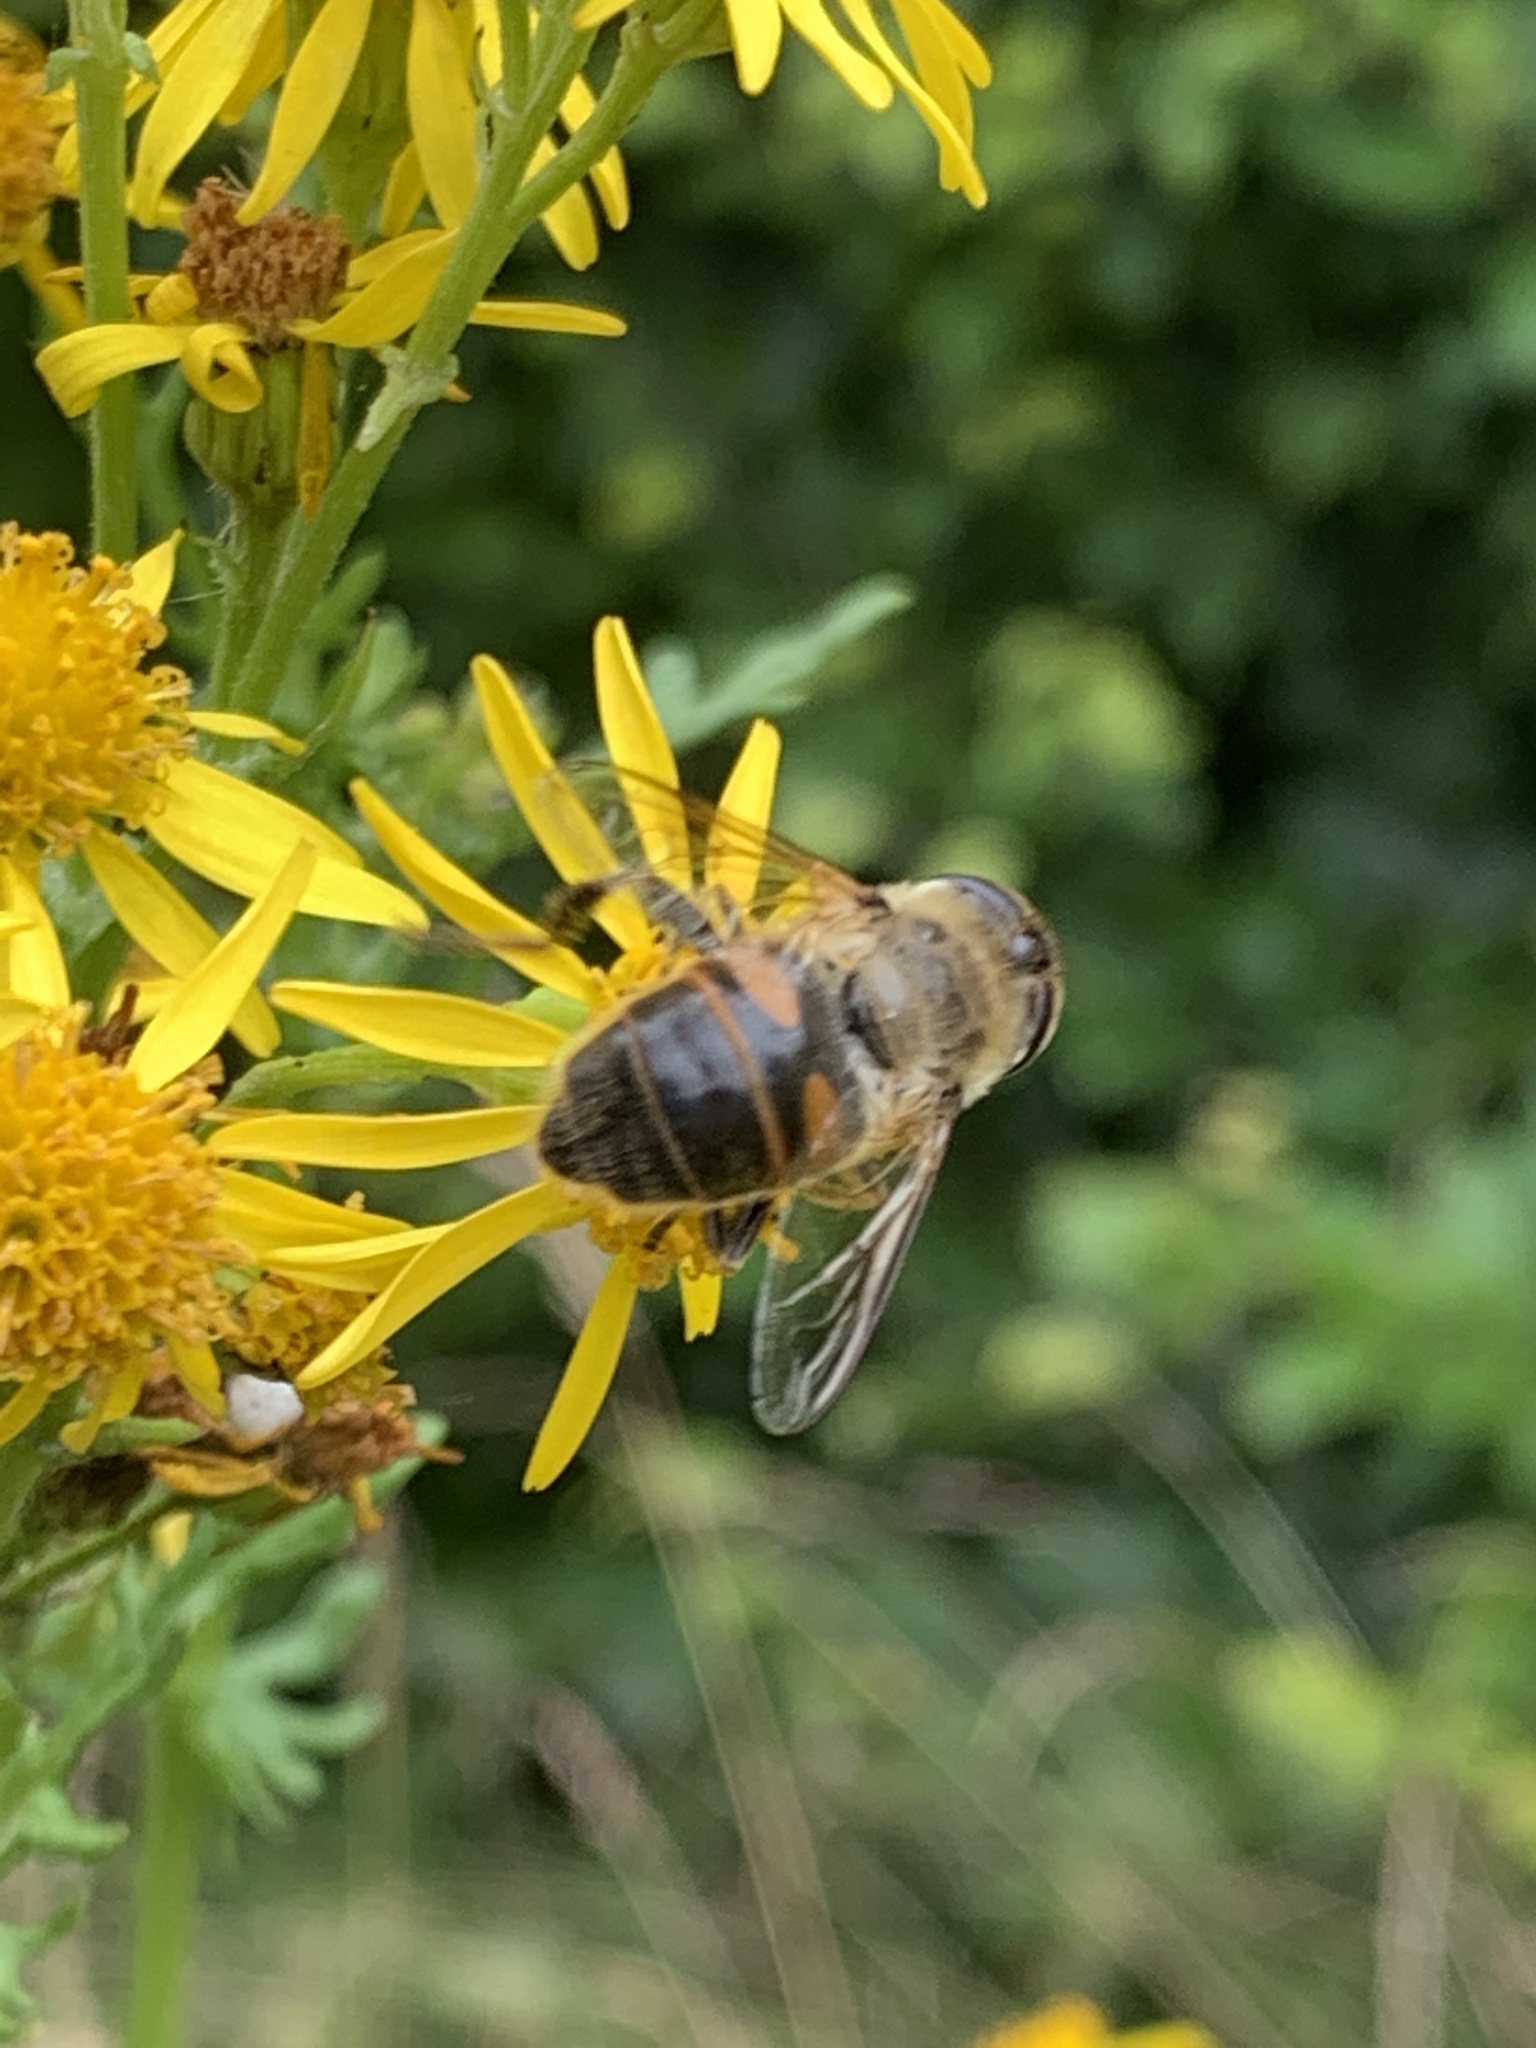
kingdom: Animalia
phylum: Arthropoda
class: Insecta
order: Diptera
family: Syrphidae
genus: Eristalis
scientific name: Eristalis tenax
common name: Drone fly
